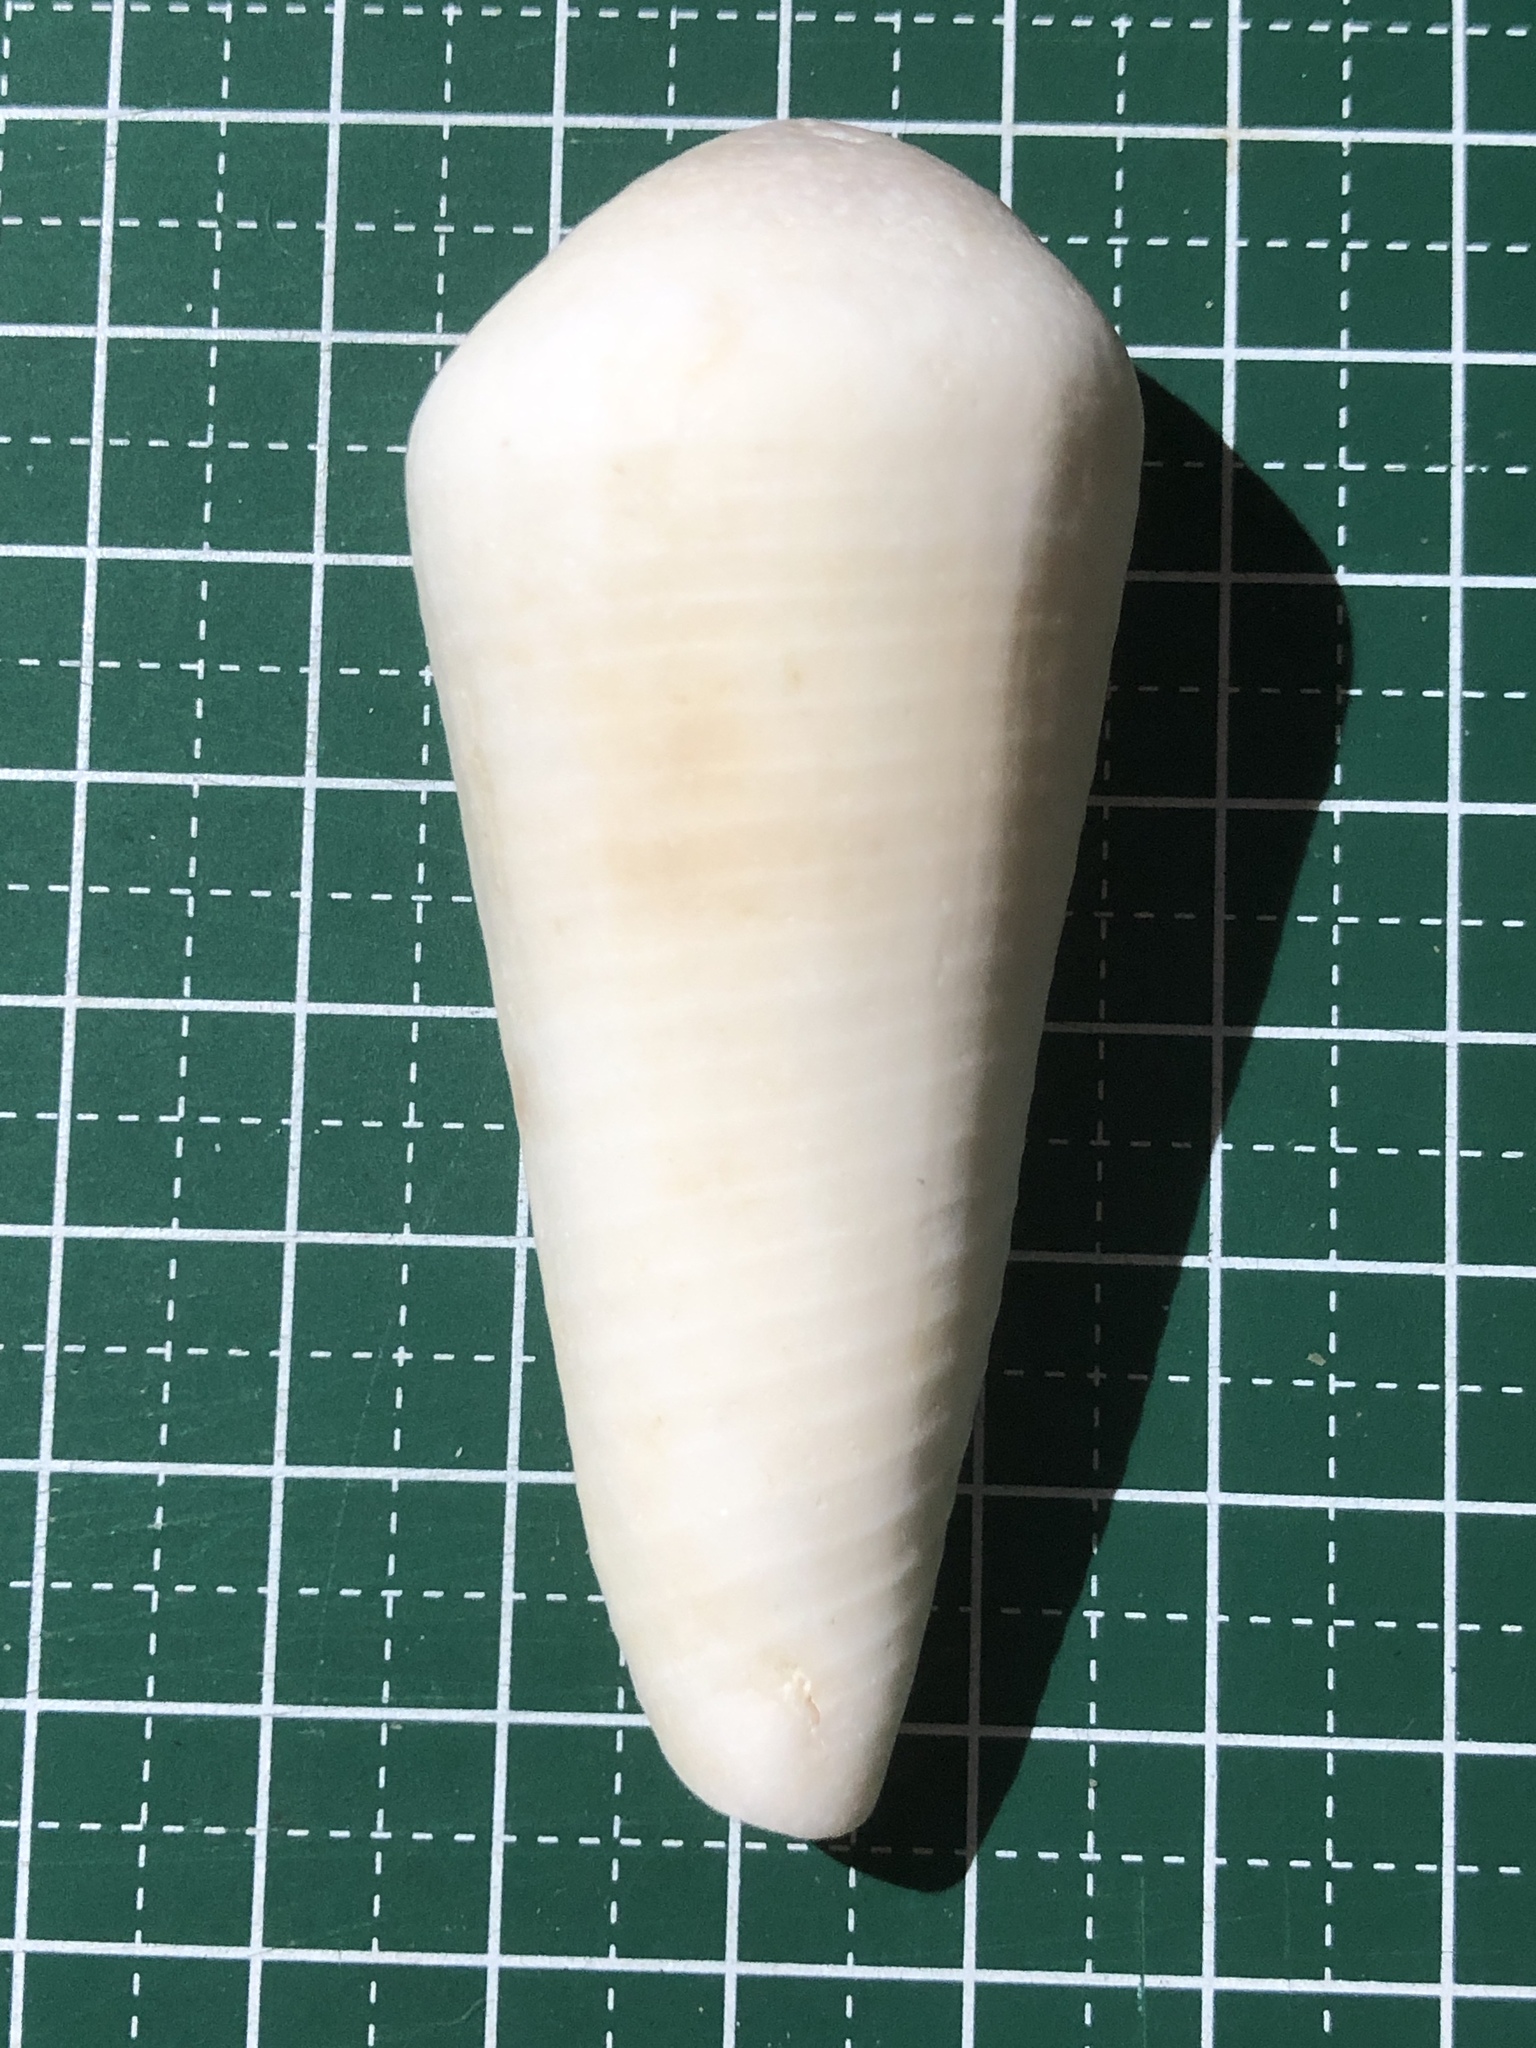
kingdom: Animalia
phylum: Mollusca
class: Gastropoda
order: Neogastropoda
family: Conidae
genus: Conus
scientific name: Conus terebra
